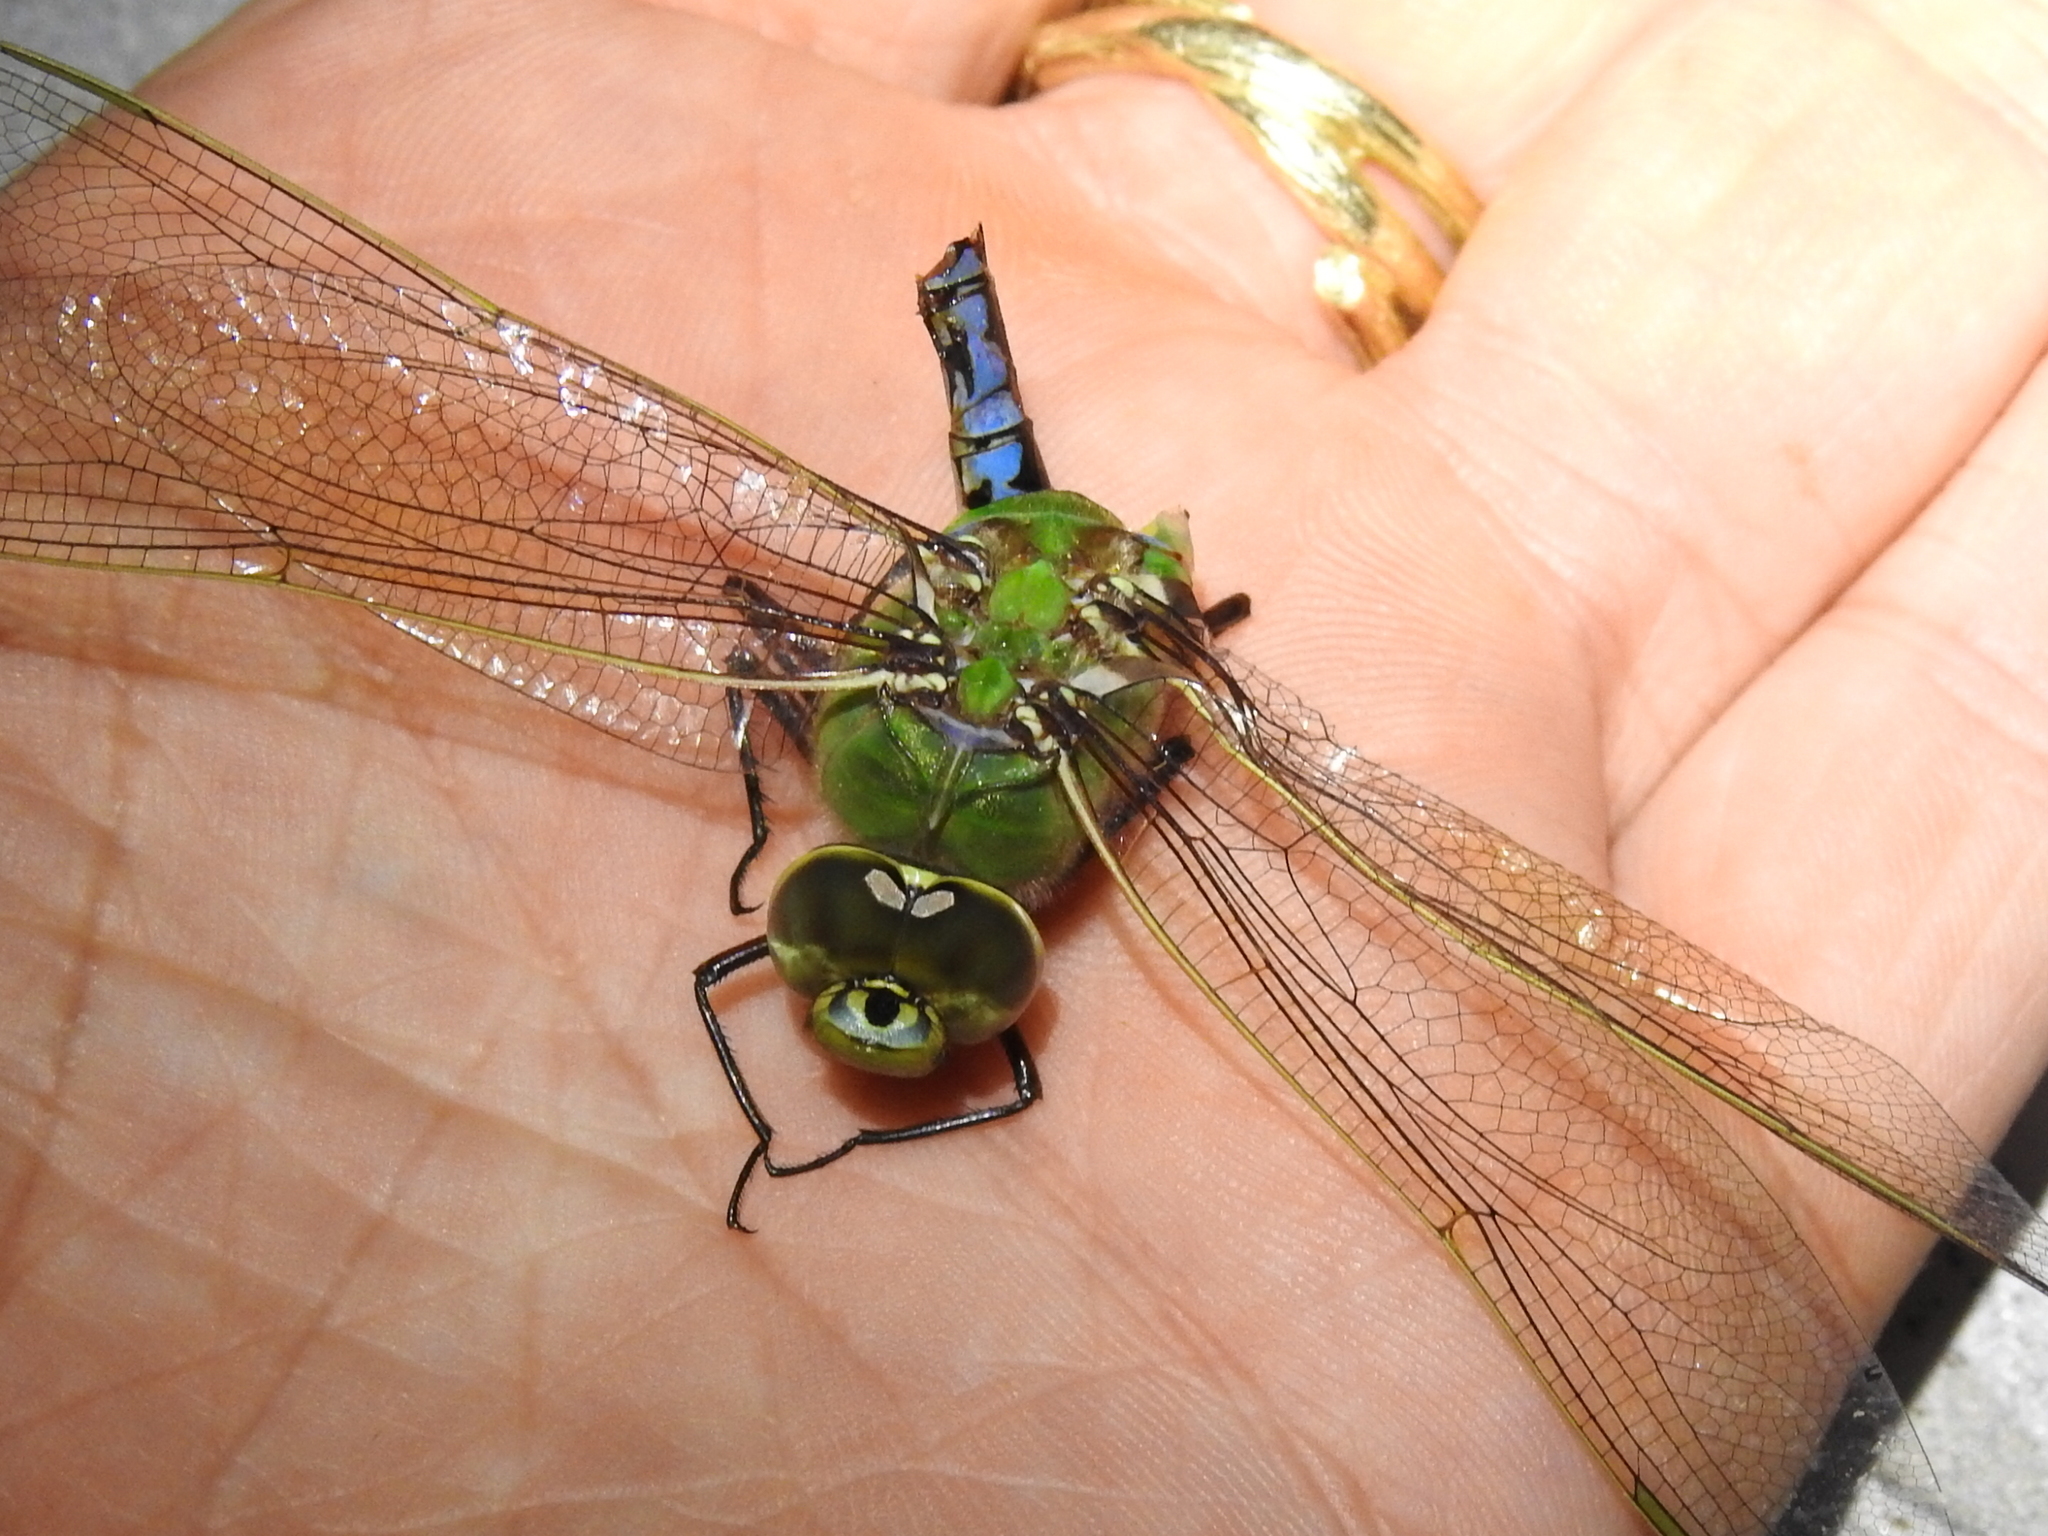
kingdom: Animalia
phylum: Arthropoda
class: Insecta
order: Odonata
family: Aeshnidae
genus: Anax
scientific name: Anax junius
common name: Common green darner
